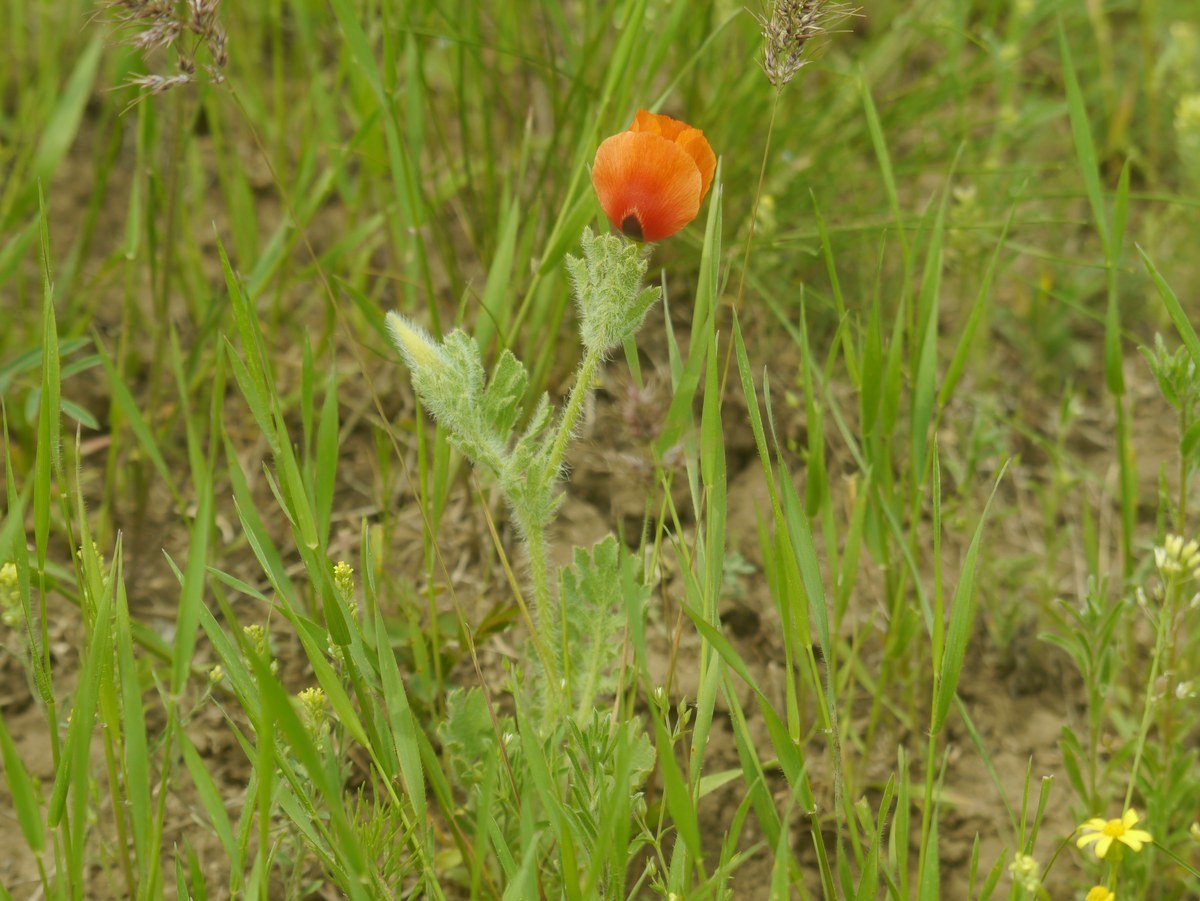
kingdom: Plantae
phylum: Tracheophyta
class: Magnoliopsida
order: Ranunculales
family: Papaveraceae
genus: Glaucium
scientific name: Glaucium corniculatum
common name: Red horned-poppy
